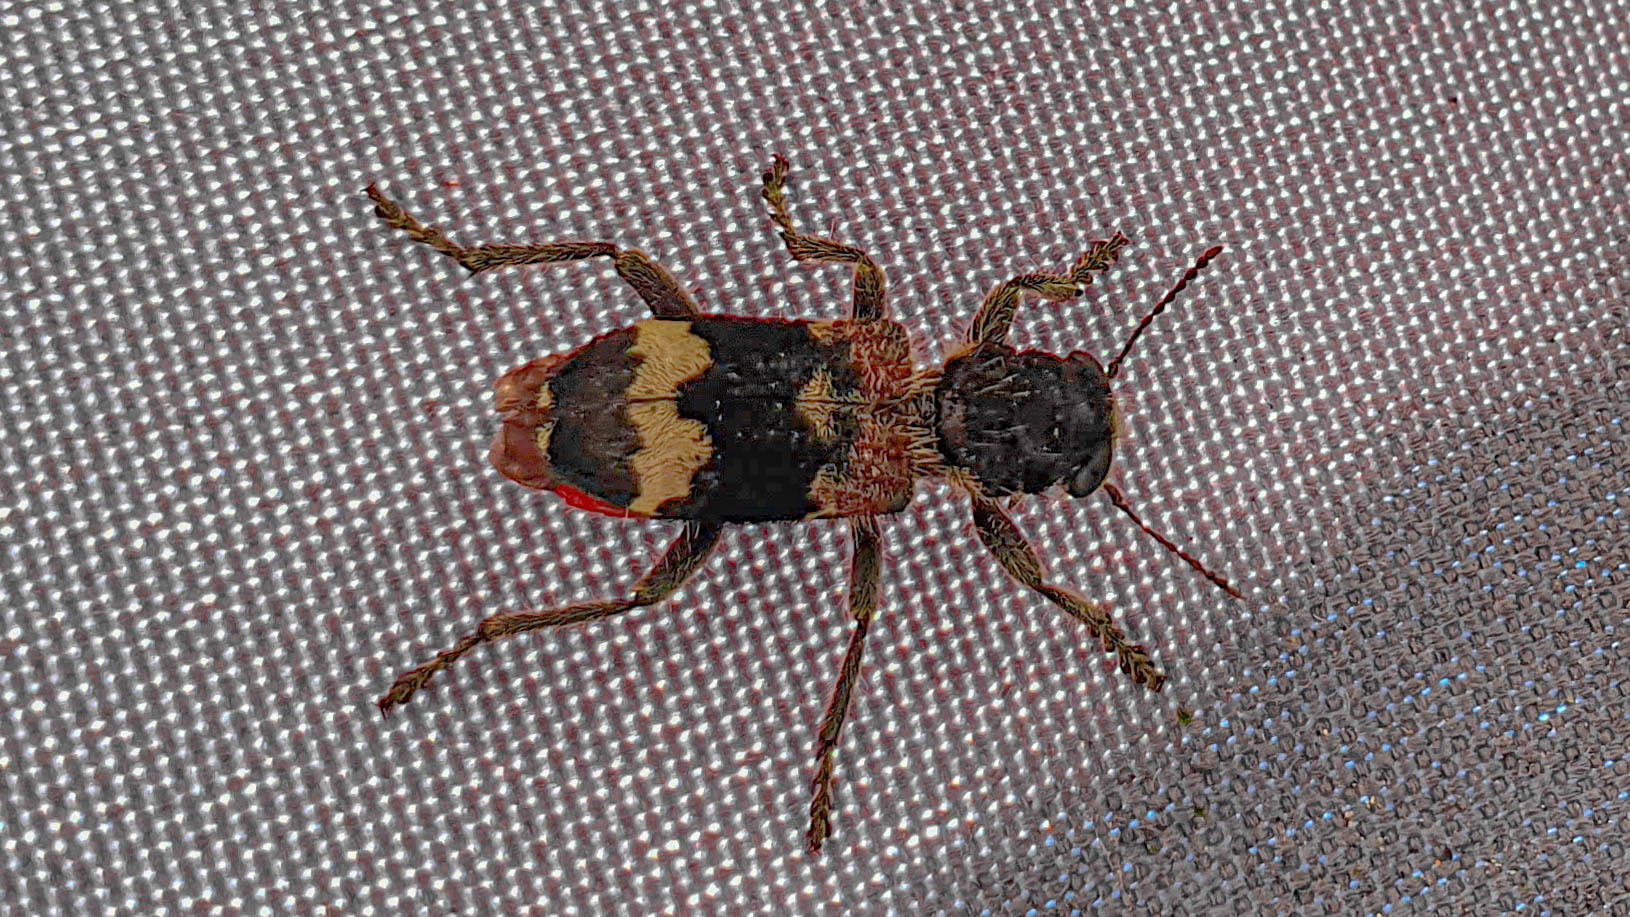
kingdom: Animalia
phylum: Arthropoda
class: Insecta
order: Coleoptera
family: Cleridae
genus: Clerus
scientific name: Clerus mutillarius
